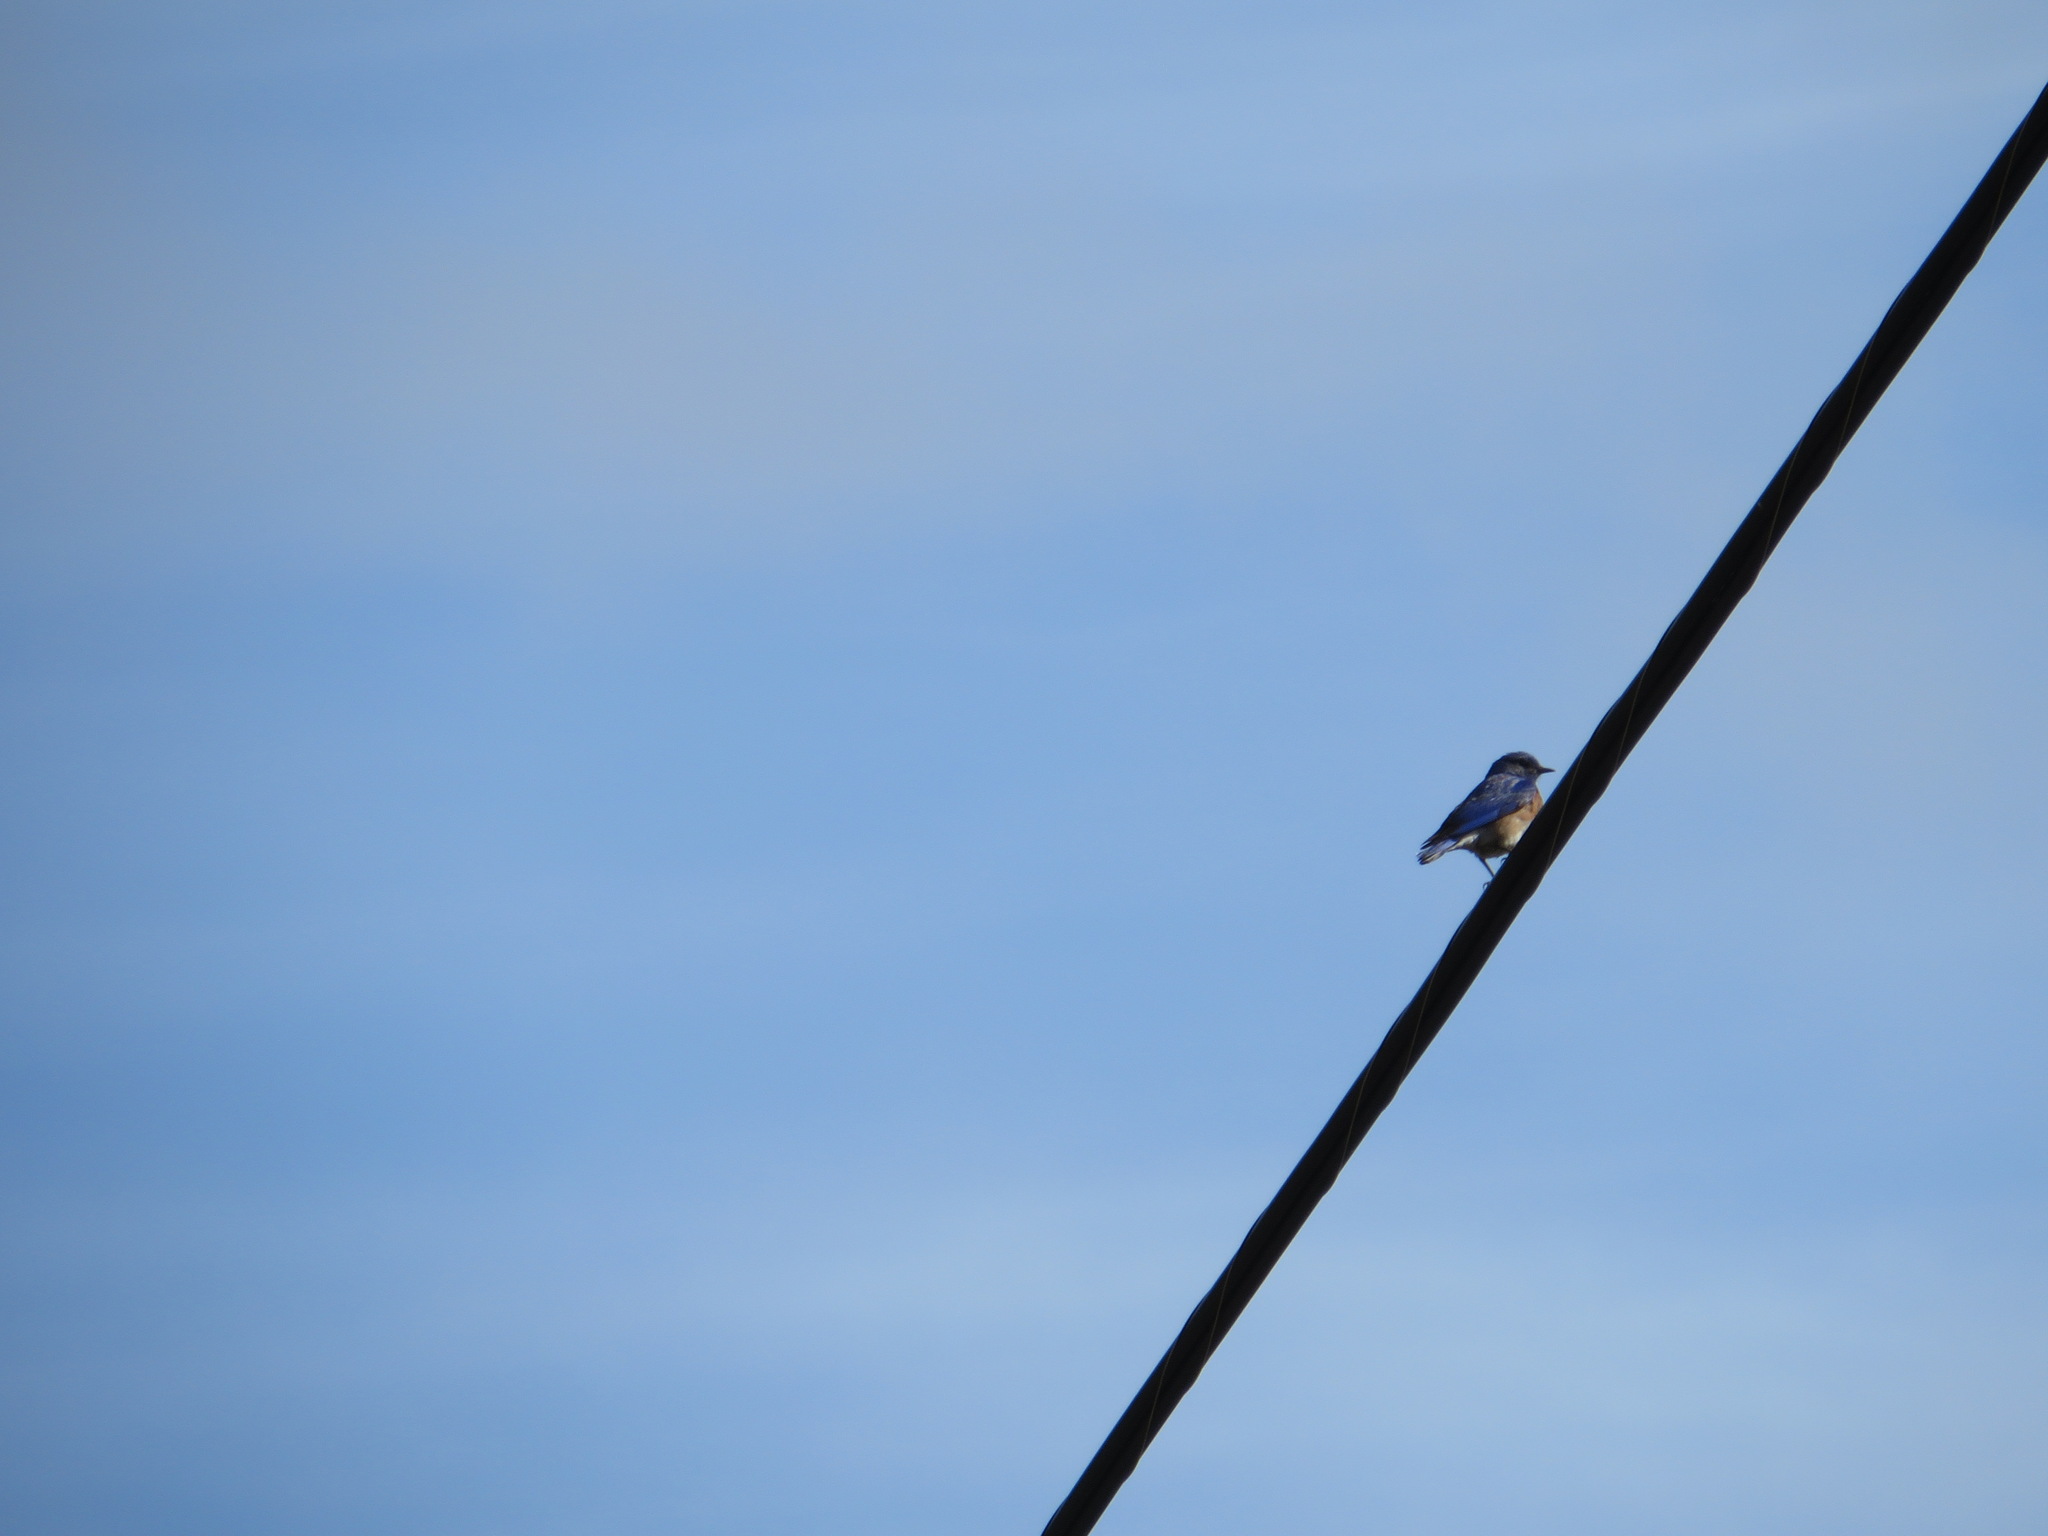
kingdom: Animalia
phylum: Chordata
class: Aves
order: Passeriformes
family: Turdidae
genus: Sialia
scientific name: Sialia mexicana
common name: Western bluebird
